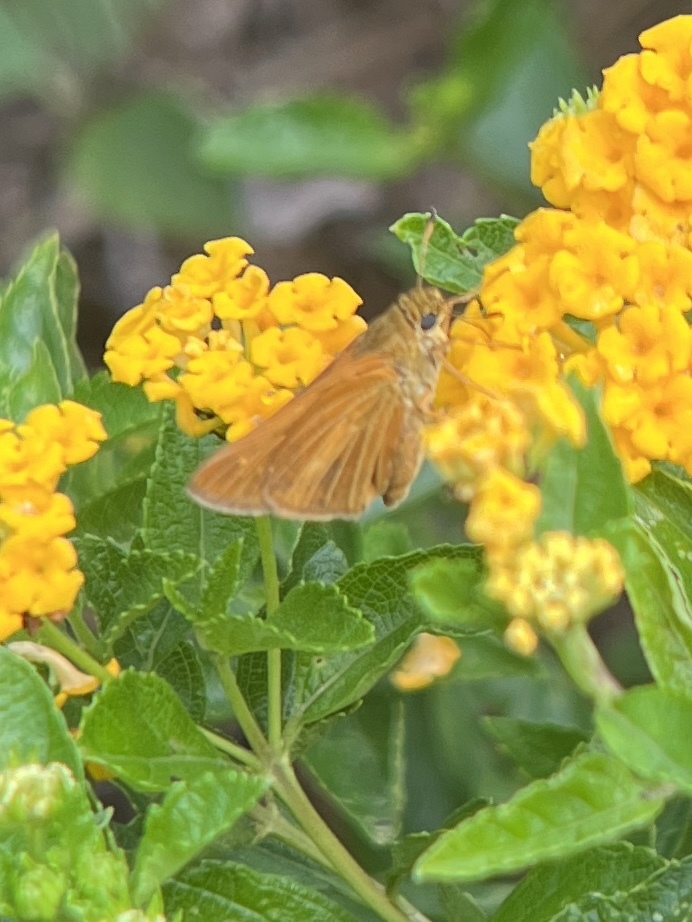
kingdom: Animalia
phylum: Arthropoda
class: Insecta
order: Lepidoptera
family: Hesperiidae
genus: Euphyes
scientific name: Euphyes dion
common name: Dion skipper
